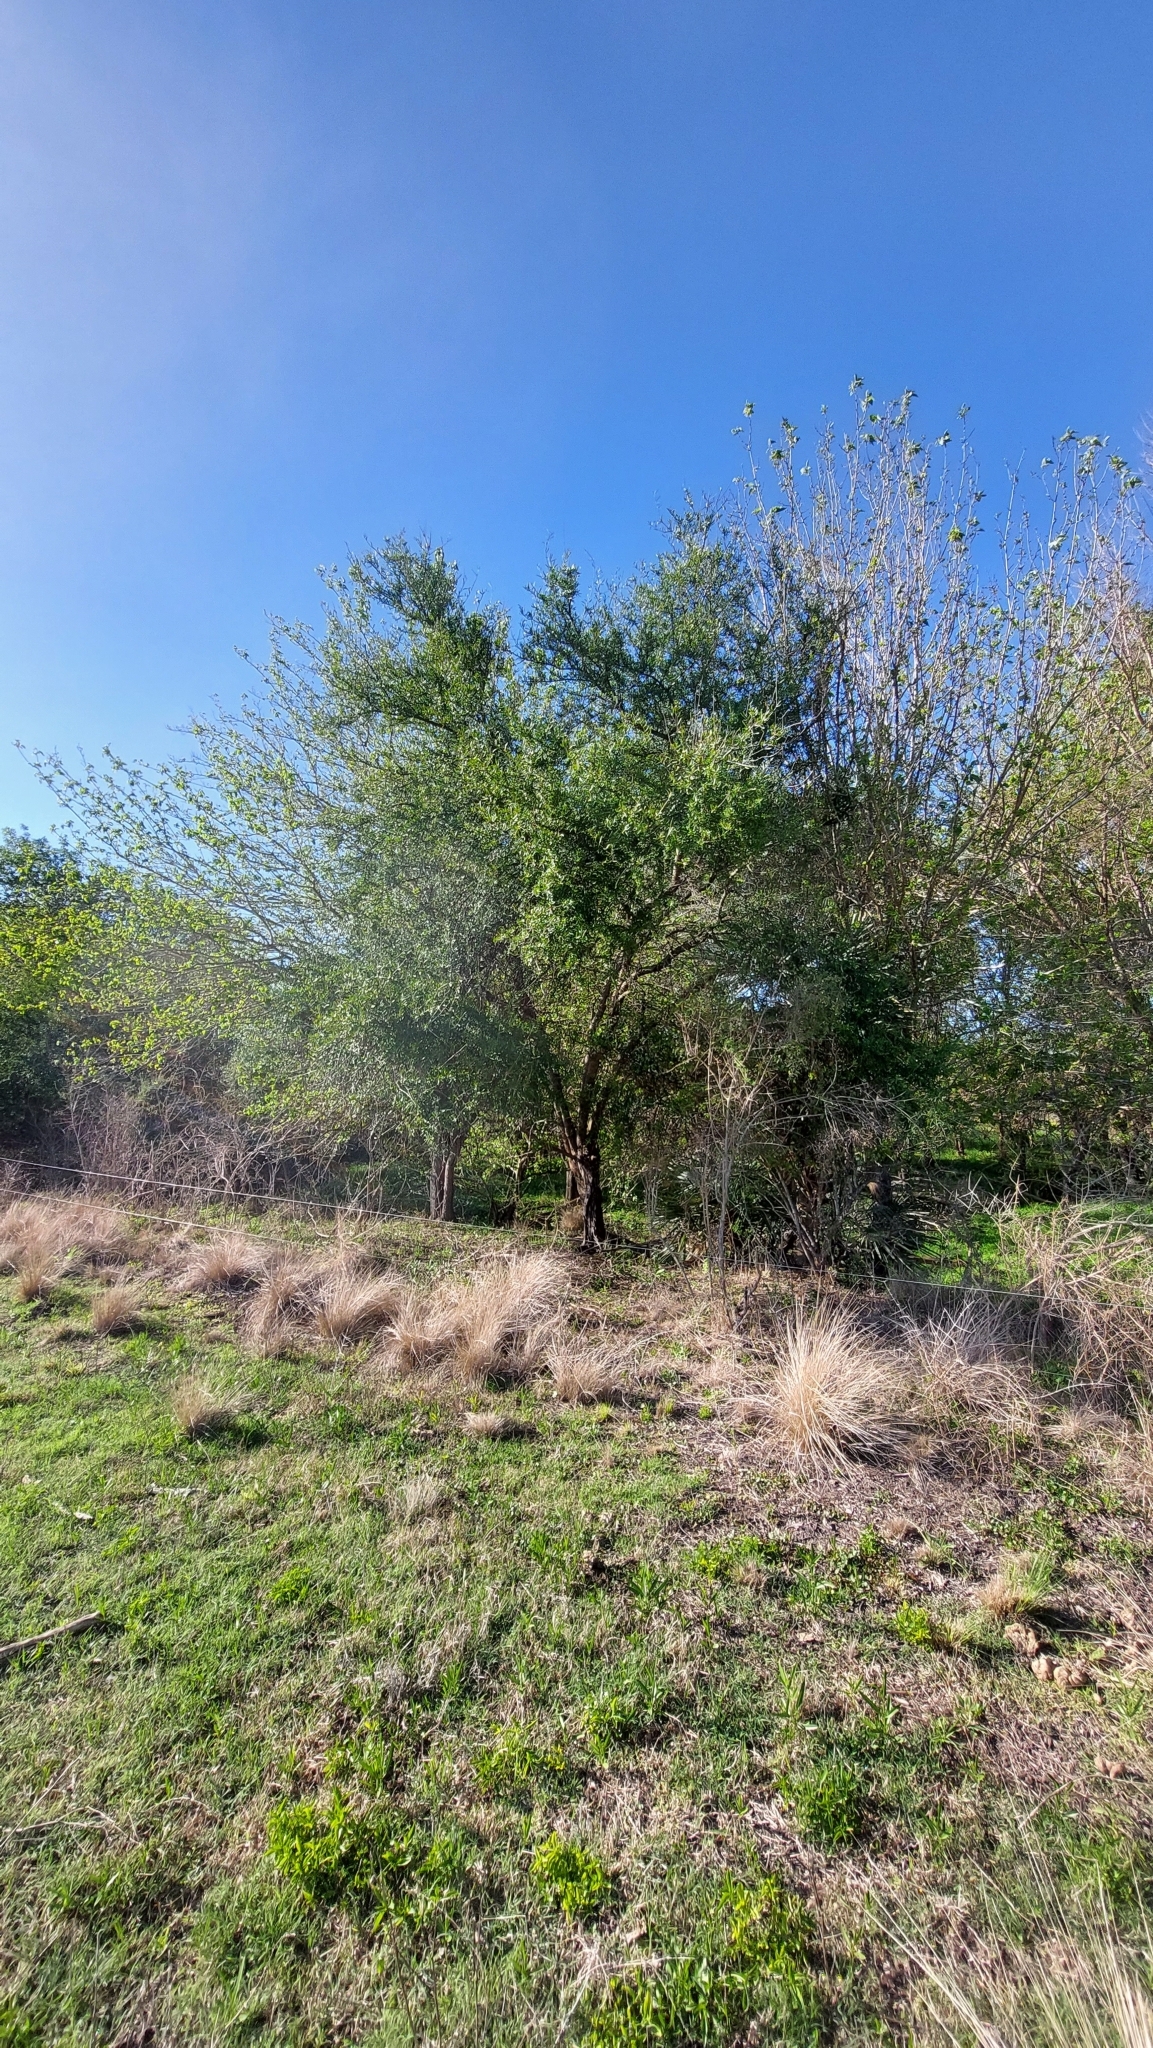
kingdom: Plantae
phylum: Tracheophyta
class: Magnoliopsida
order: Sapindales
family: Anacardiaceae
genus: Schinus
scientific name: Schinus longifolia
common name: Longleaf peppertree
